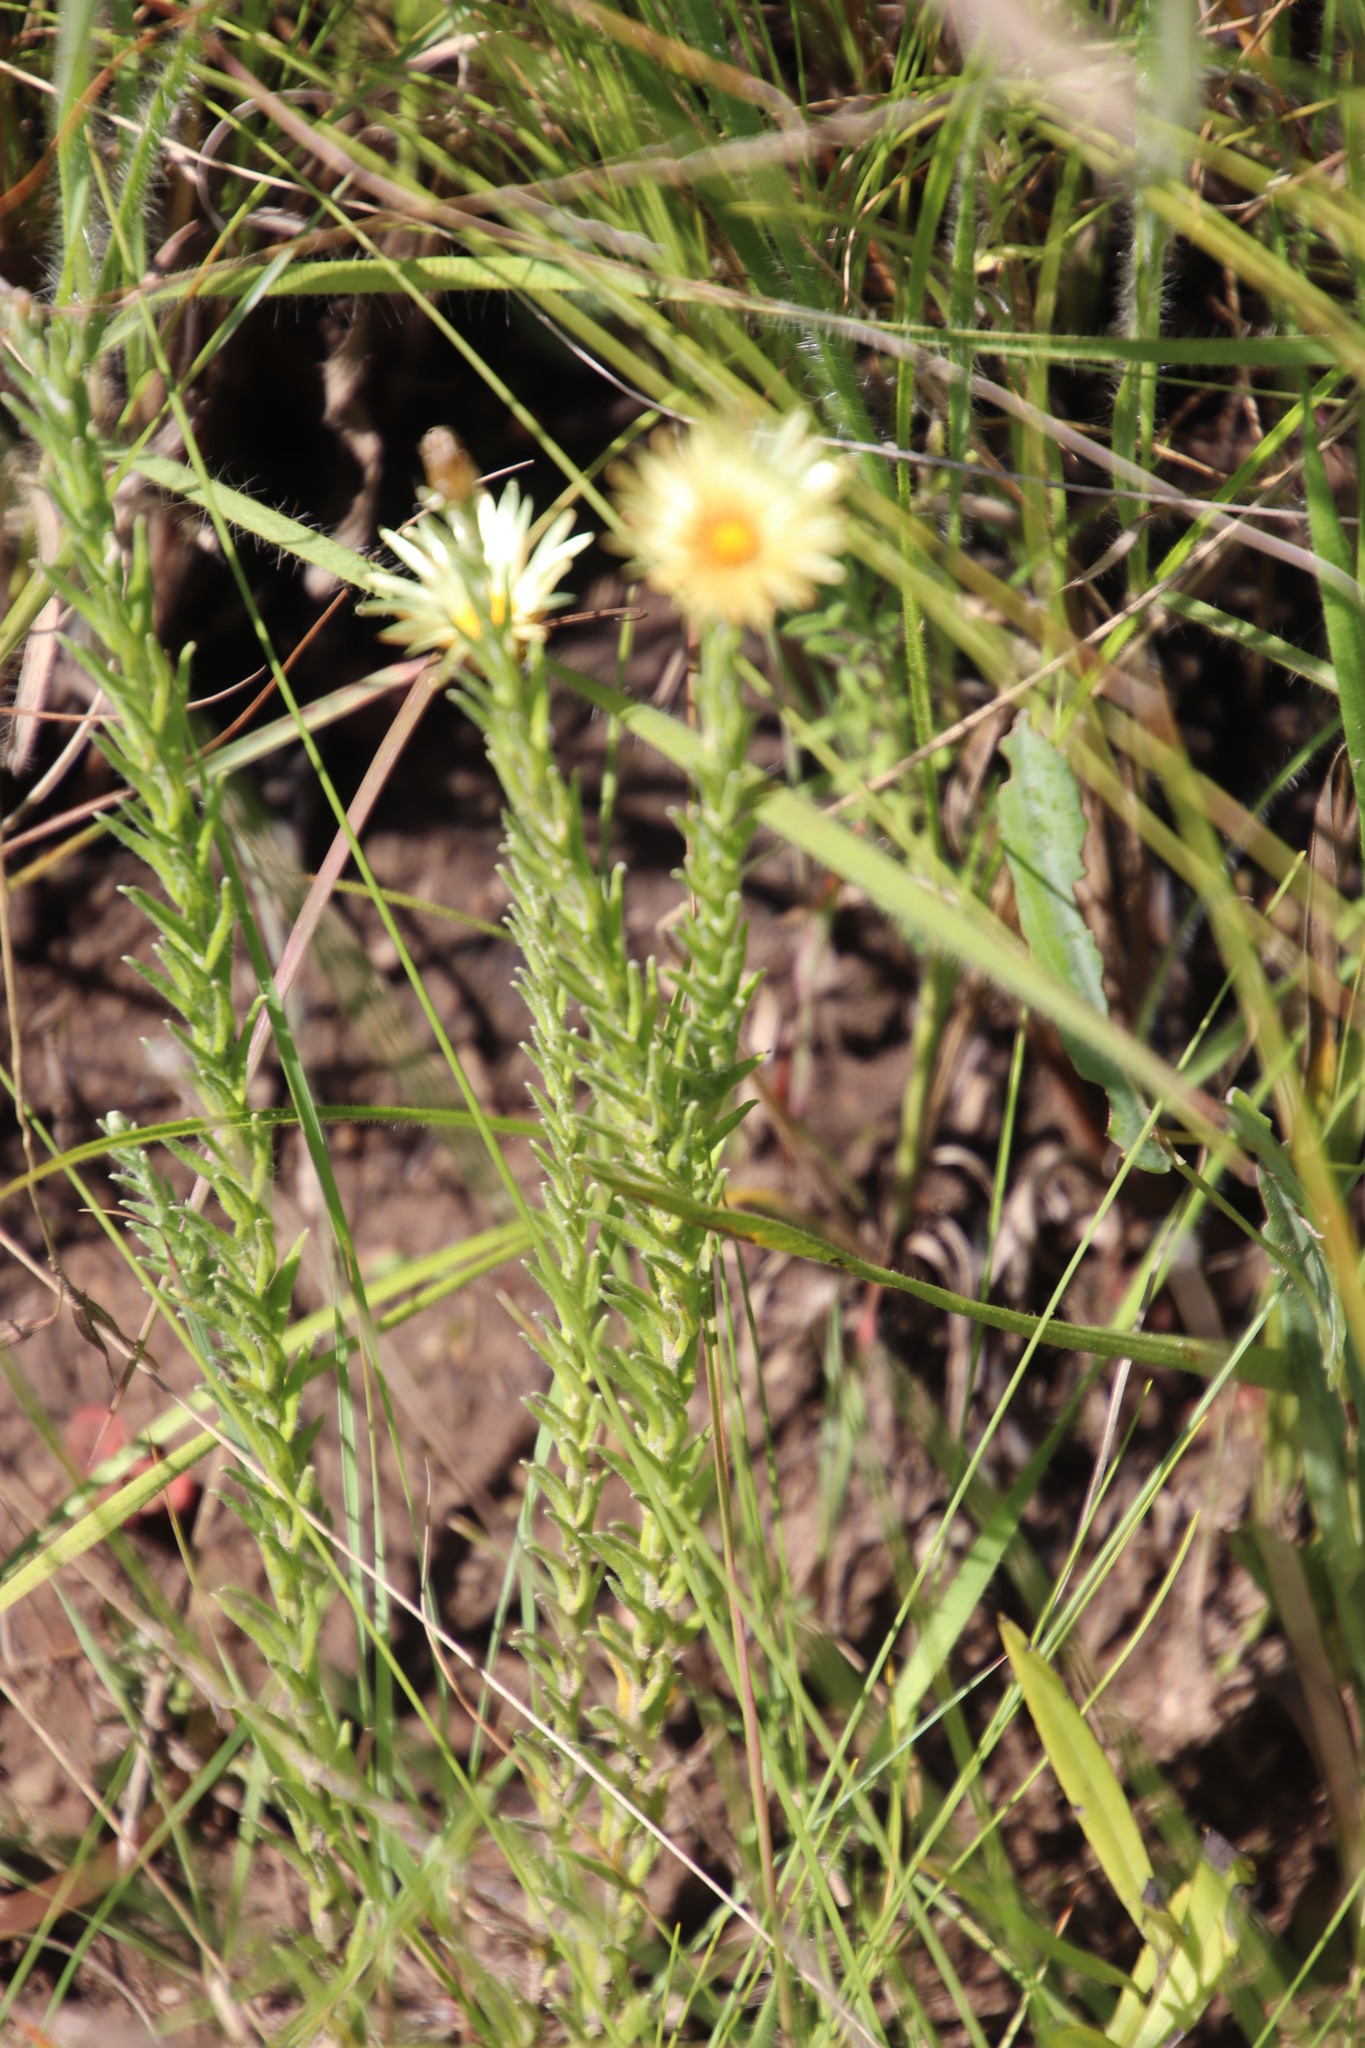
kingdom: Plantae
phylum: Tracheophyta
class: Magnoliopsida
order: Asterales
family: Asteraceae
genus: Helichrysum
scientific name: Helichrysum herbaceum
